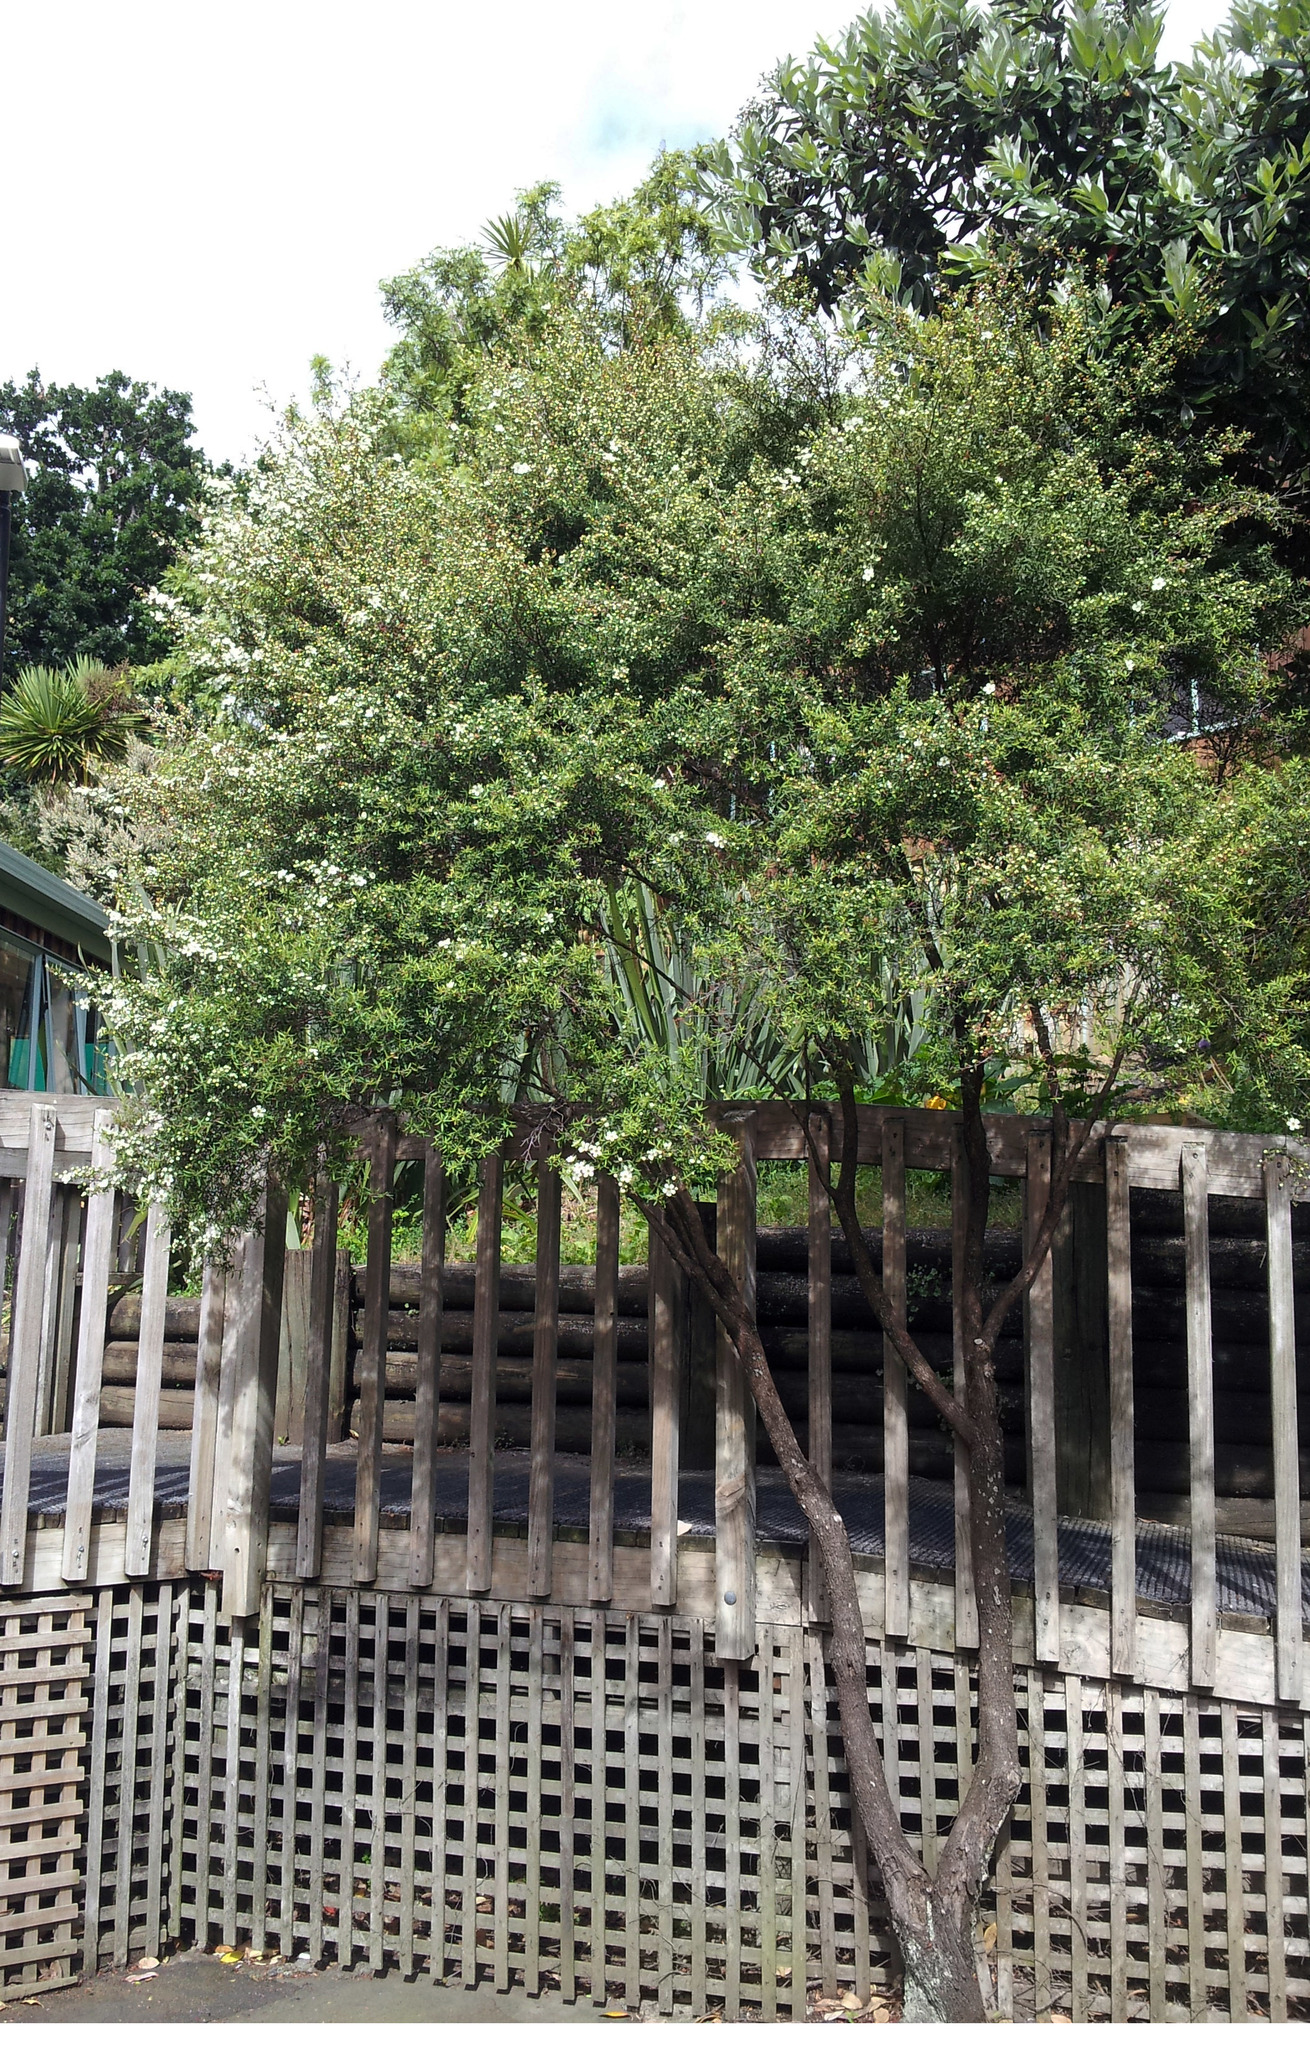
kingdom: Plantae
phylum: Tracheophyta
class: Magnoliopsida
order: Myrtales
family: Myrtaceae
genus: Leptospermum
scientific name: Leptospermum polygalifolium
